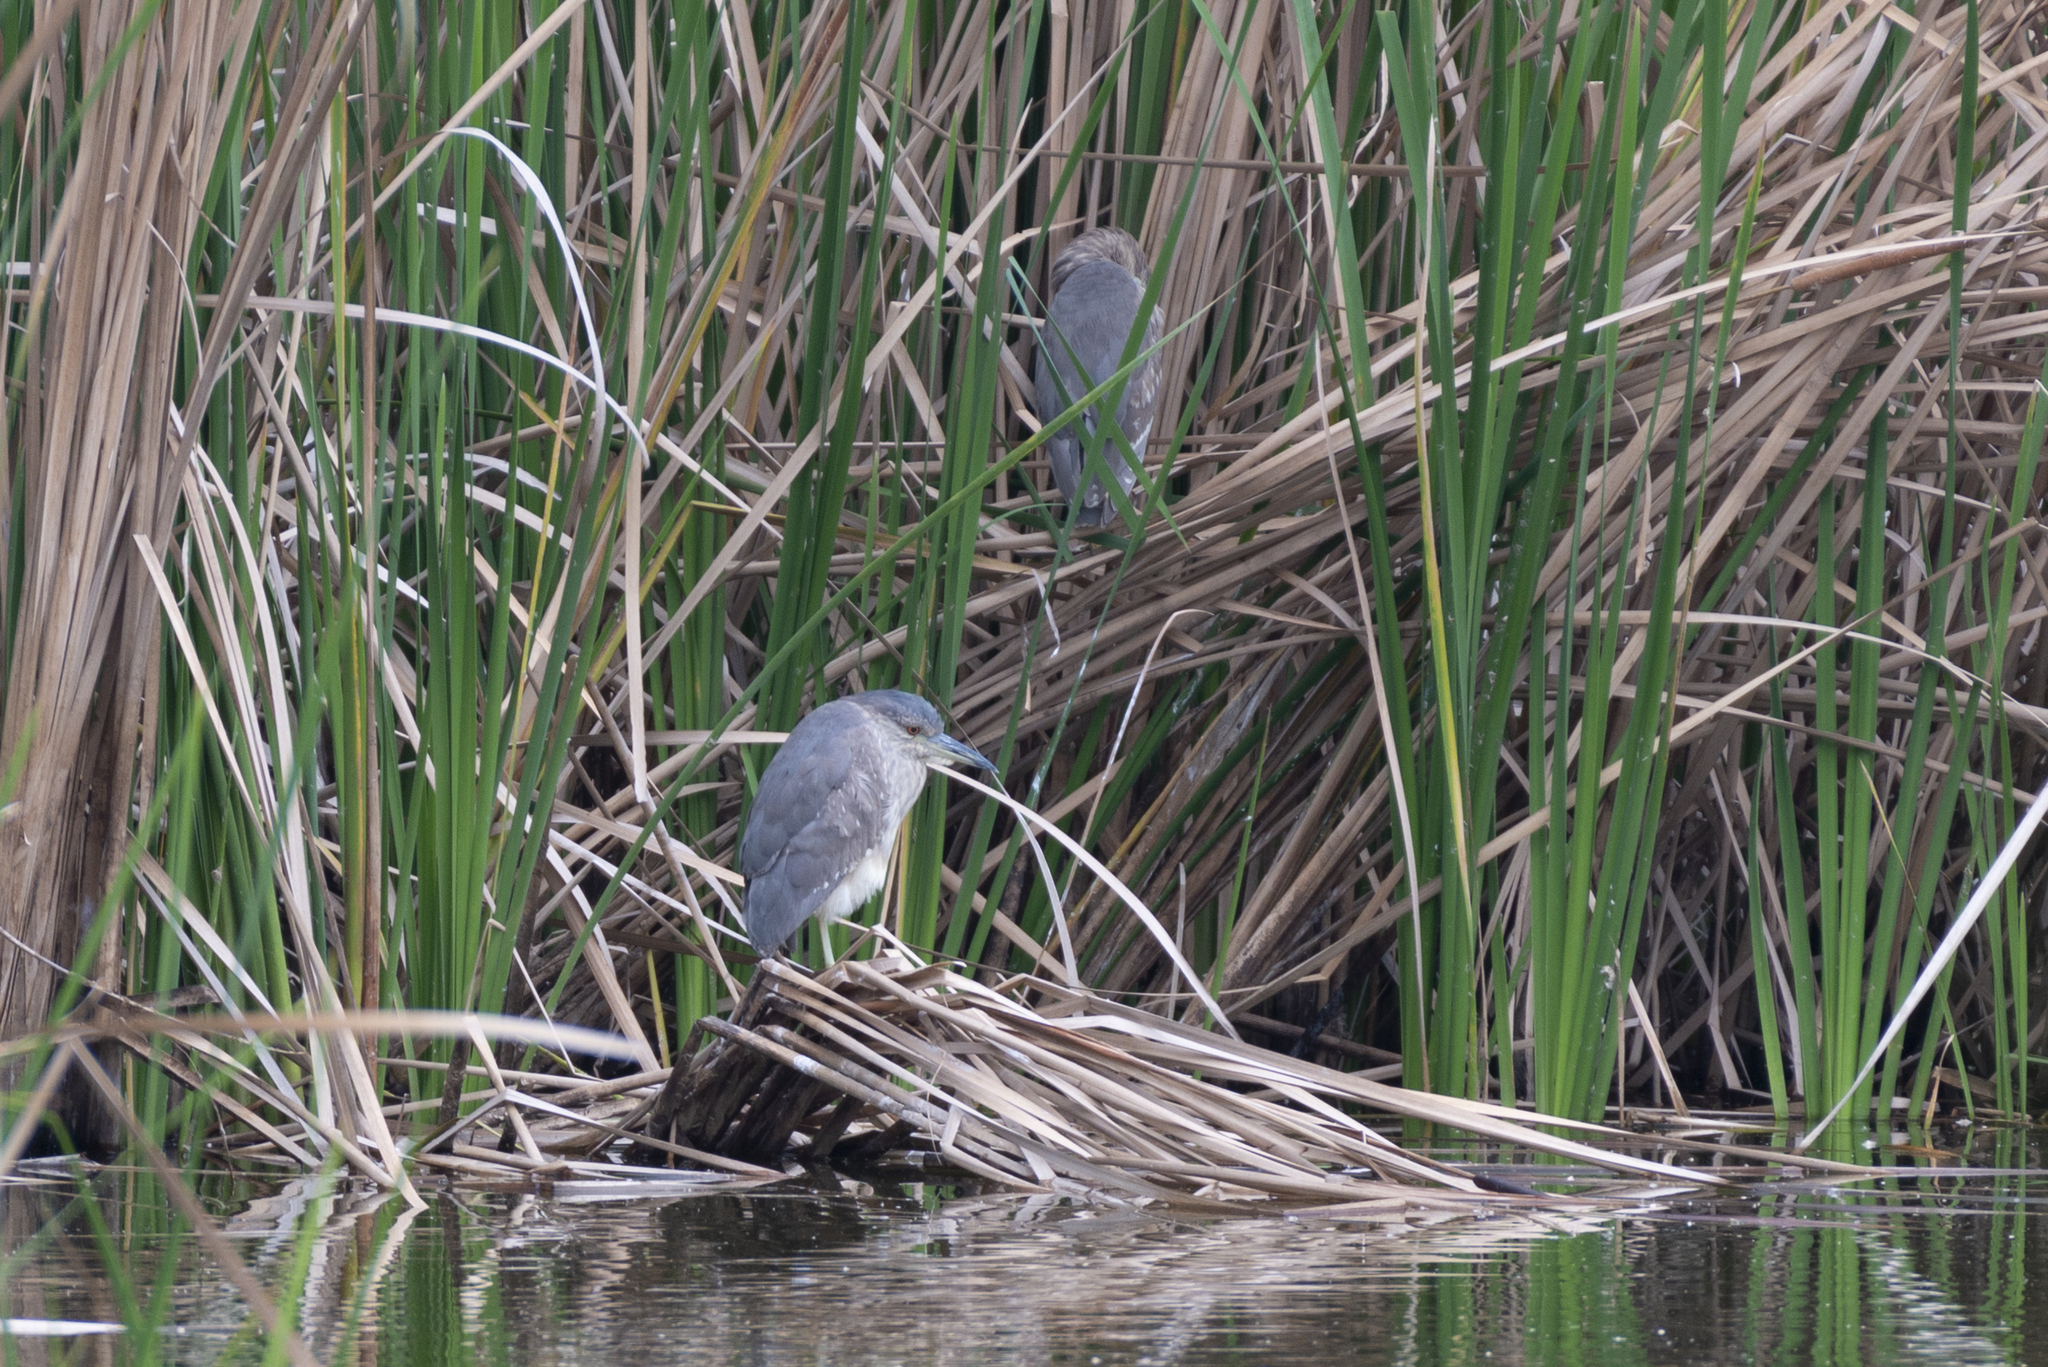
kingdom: Animalia
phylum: Chordata
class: Aves
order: Pelecaniformes
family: Ardeidae
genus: Nycticorax
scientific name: Nycticorax nycticorax
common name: Black-crowned night heron
